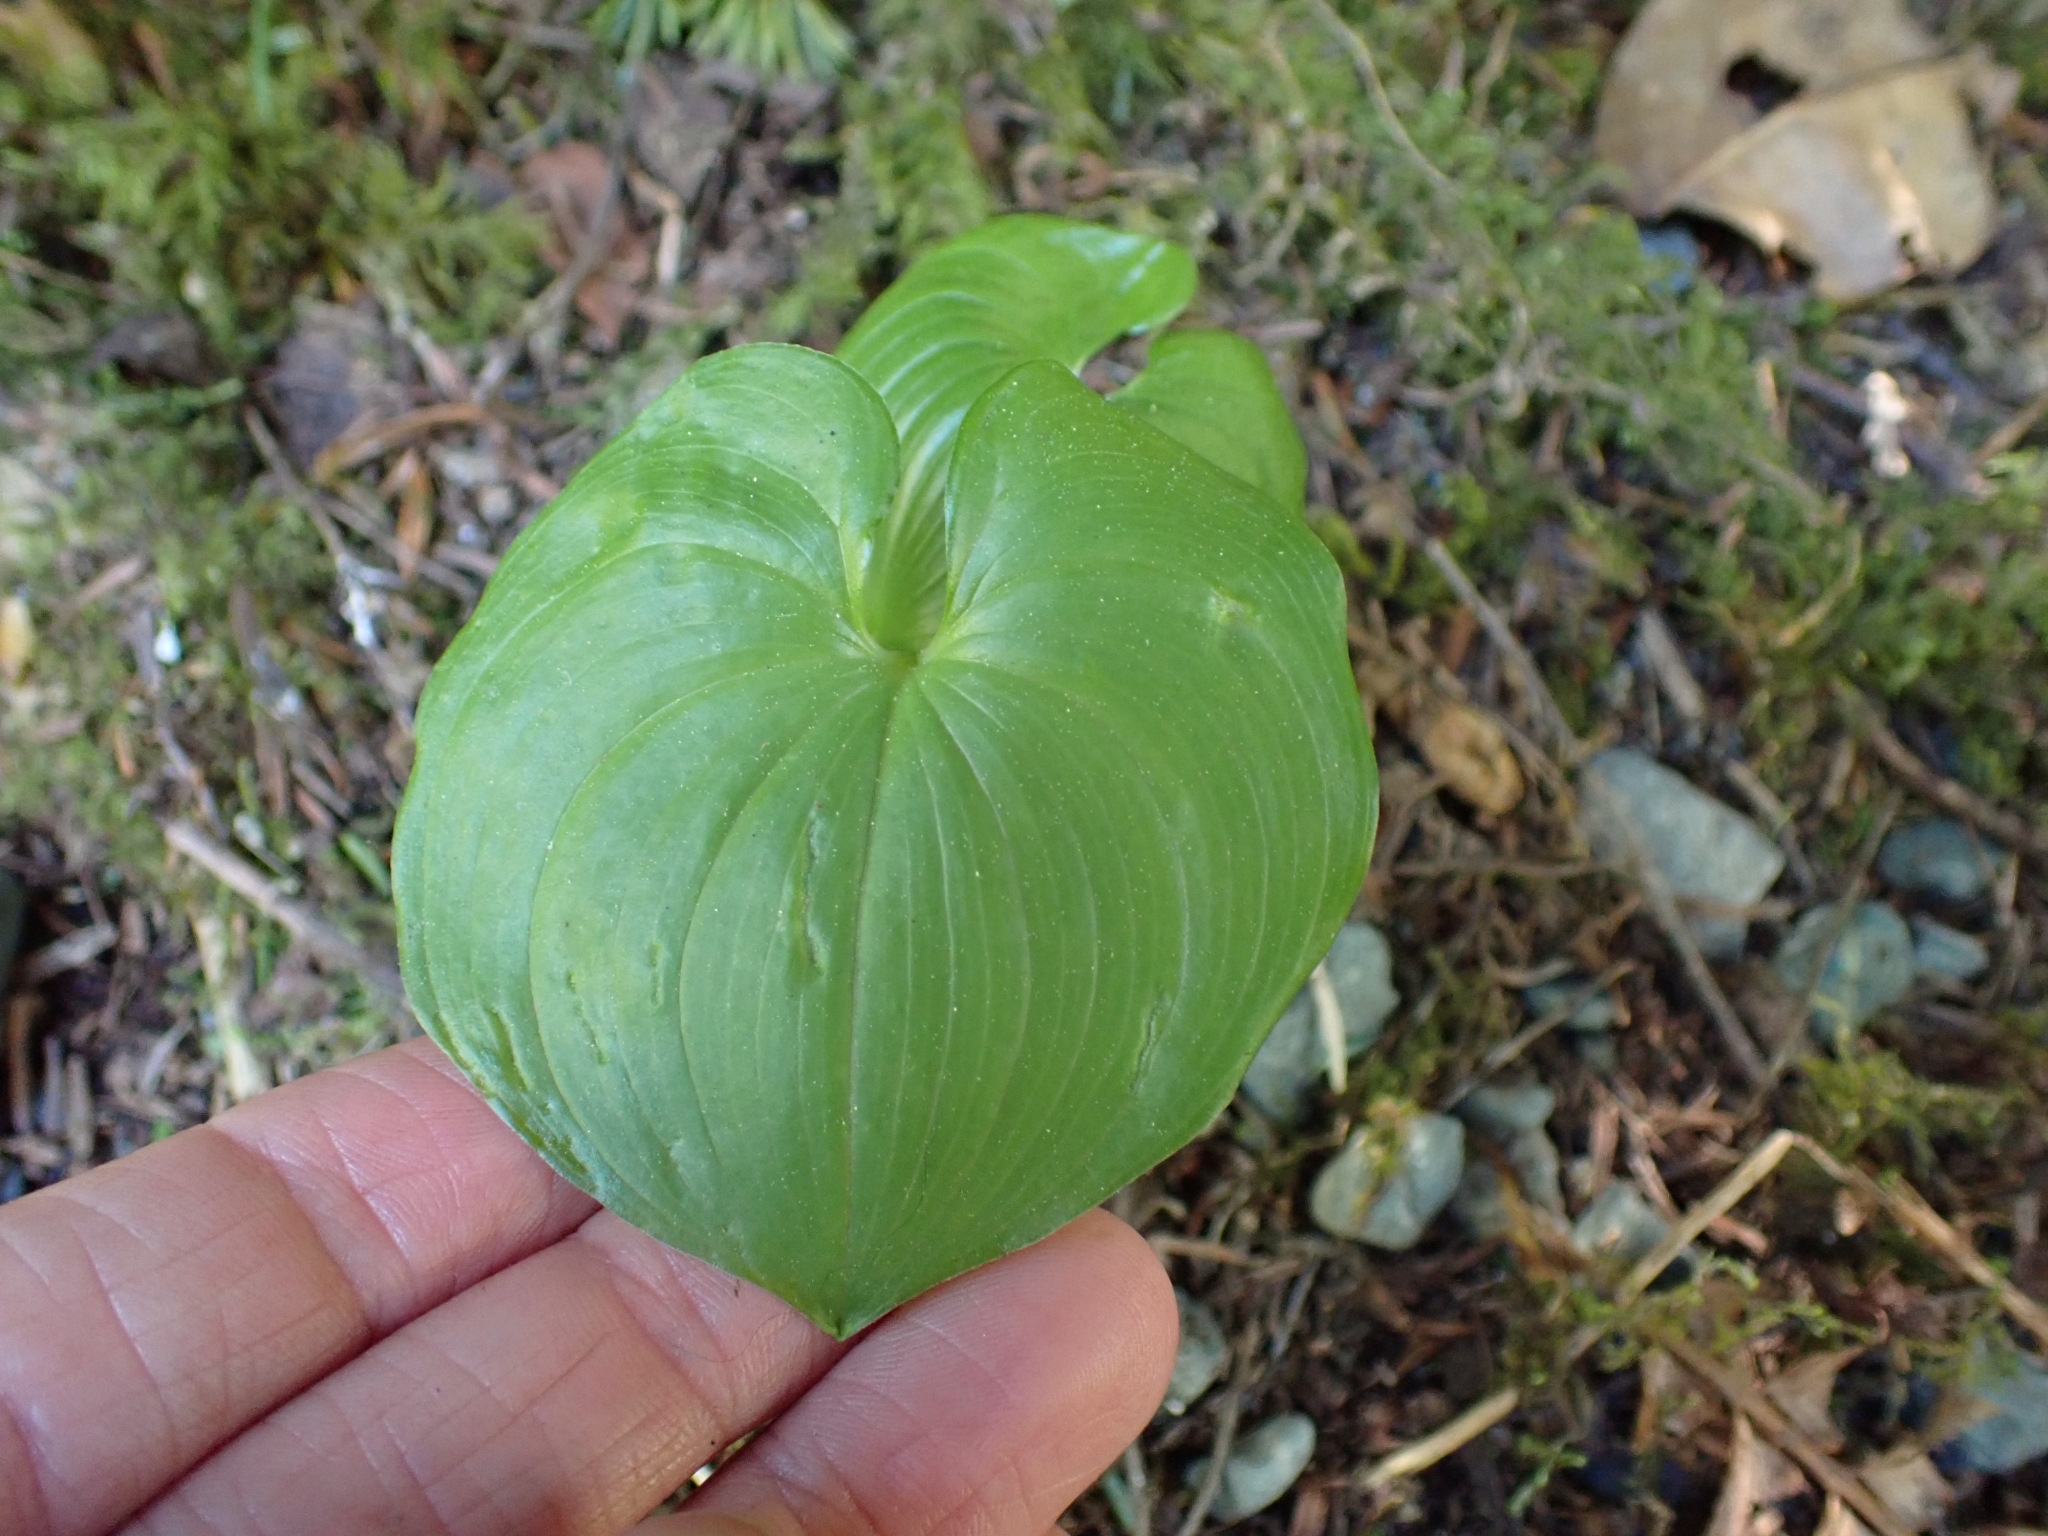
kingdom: Plantae
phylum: Tracheophyta
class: Liliopsida
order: Asparagales
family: Asparagaceae
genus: Maianthemum
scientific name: Maianthemum dilatatum
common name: False lily-of-the-valley
